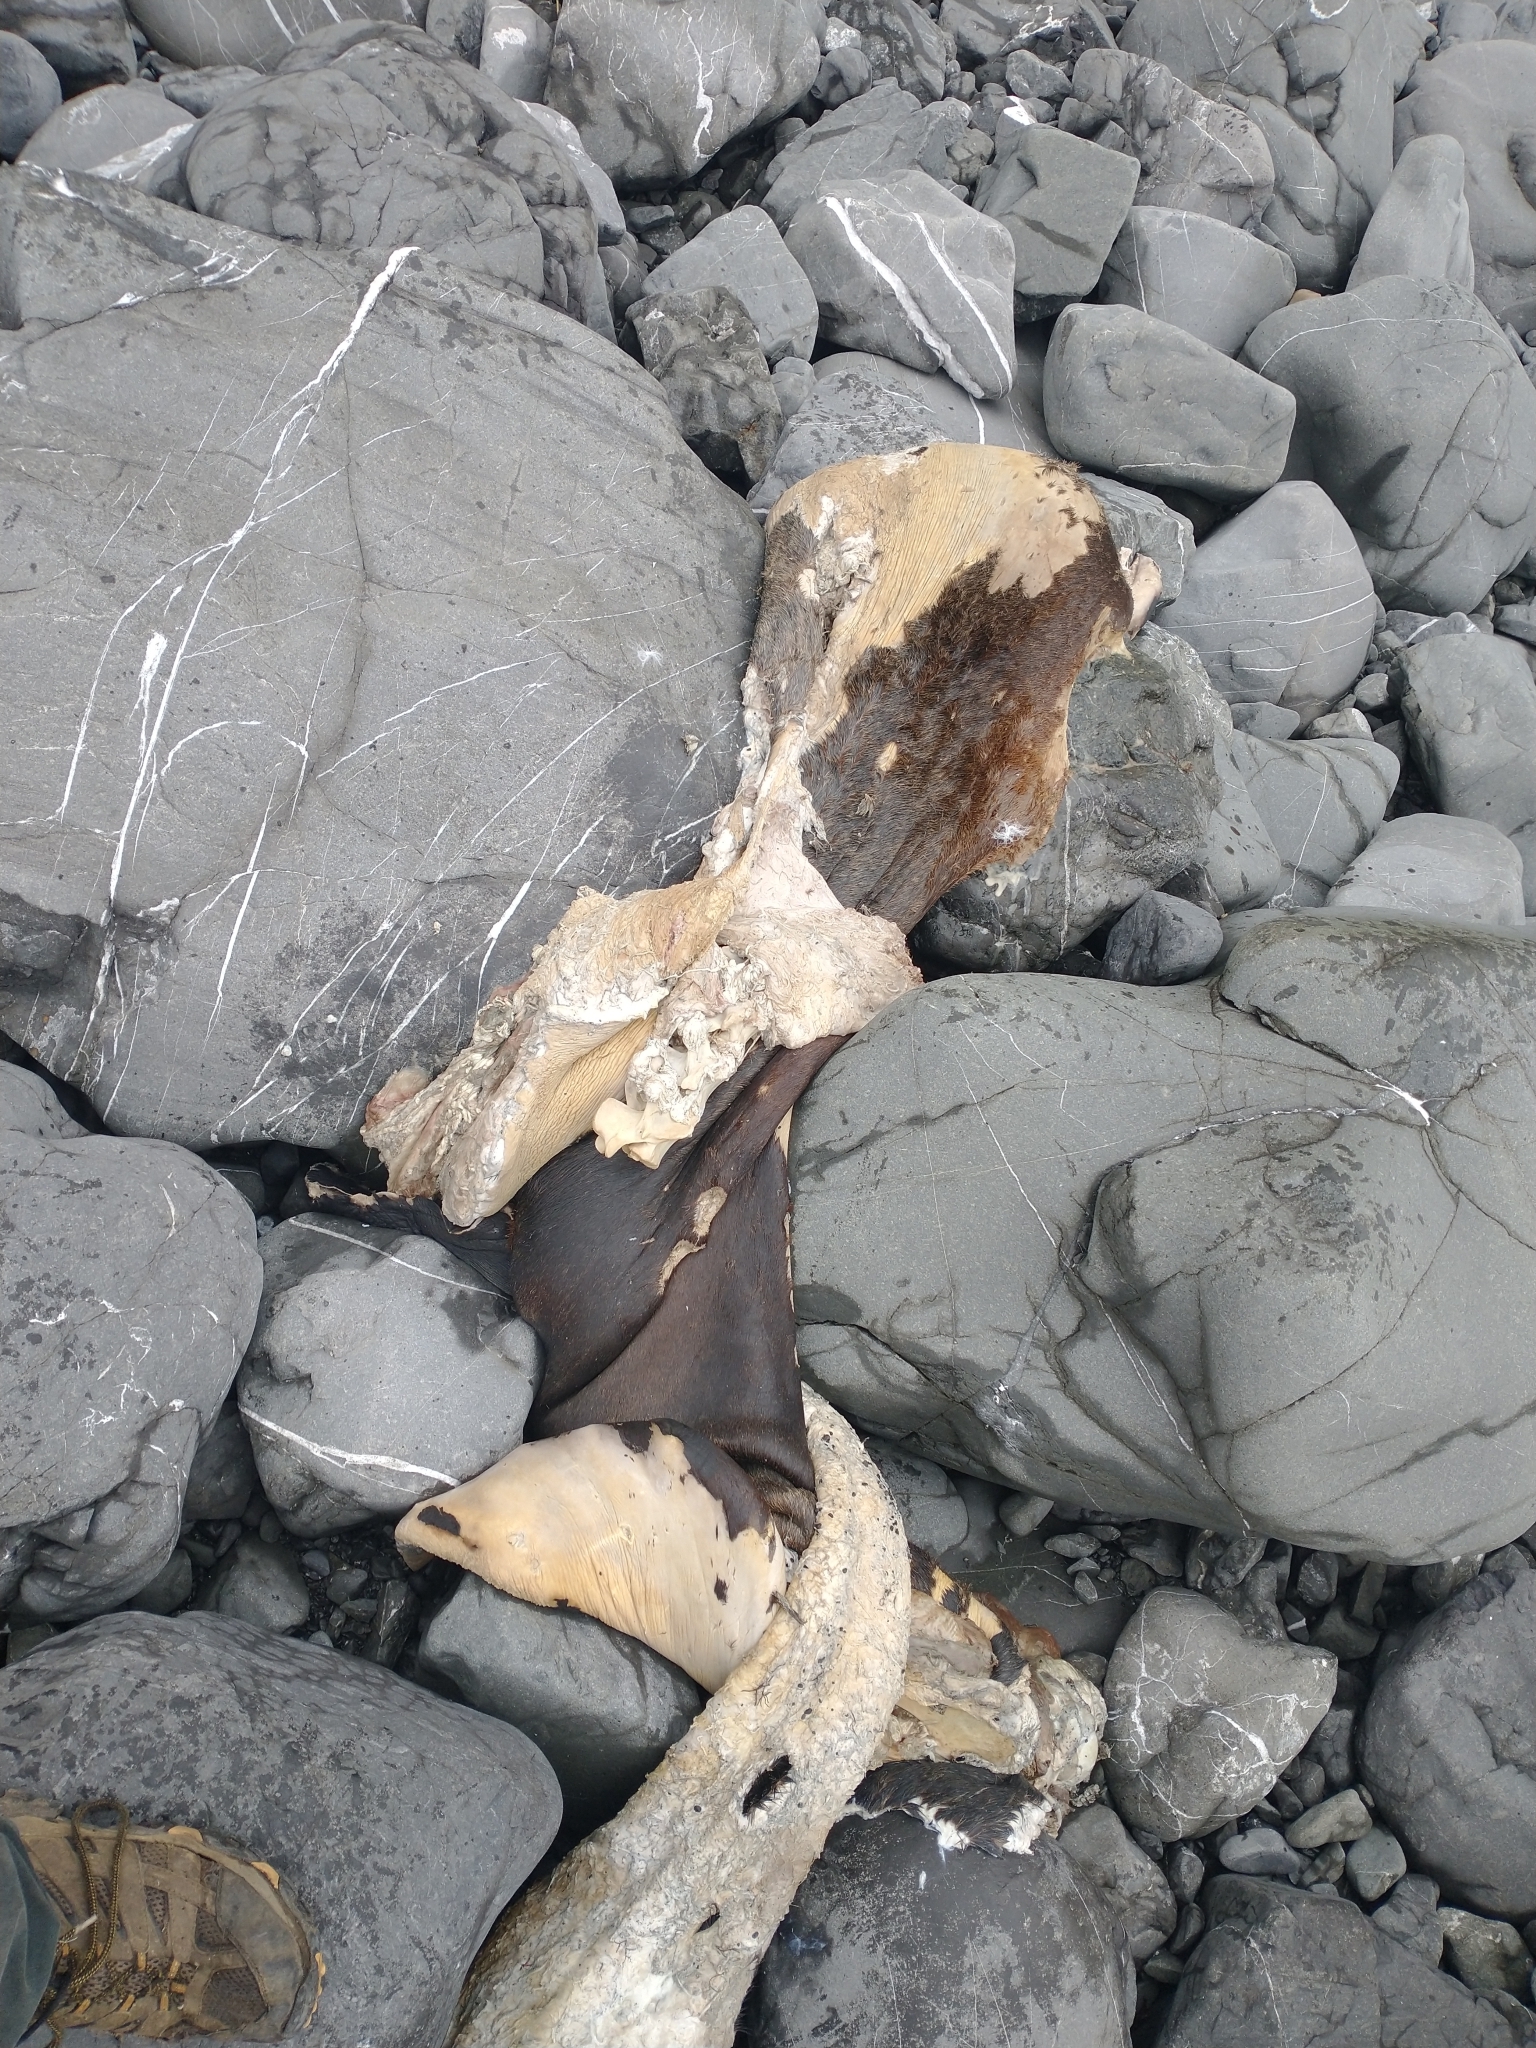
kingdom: Animalia
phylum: Chordata
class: Mammalia
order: Carnivora
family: Otariidae
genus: Zalophus
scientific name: Zalophus californianus
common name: California sea lion
